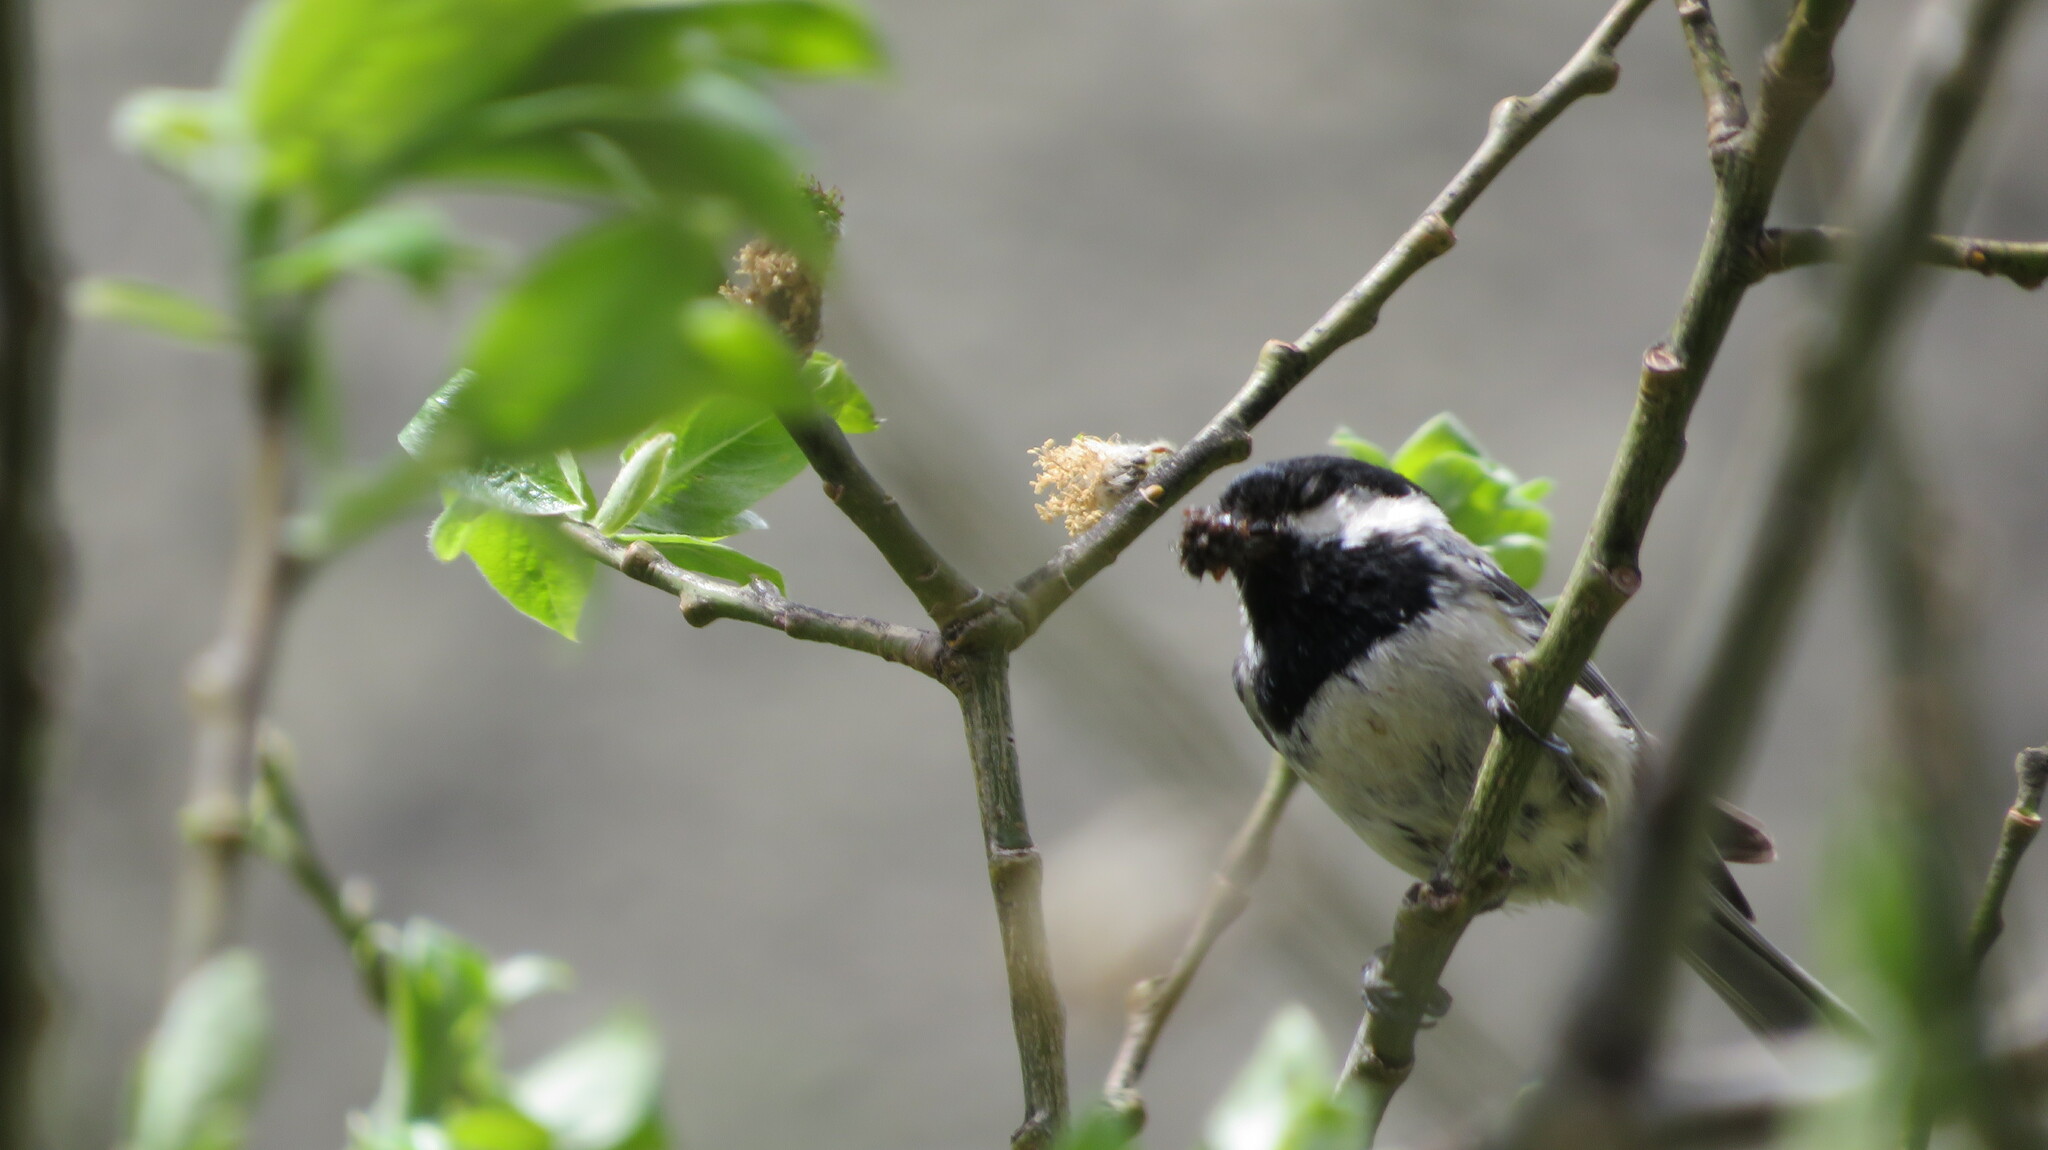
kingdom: Animalia
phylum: Chordata
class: Aves
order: Passeriformes
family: Paridae
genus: Periparus
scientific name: Periparus ater
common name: Coal tit
